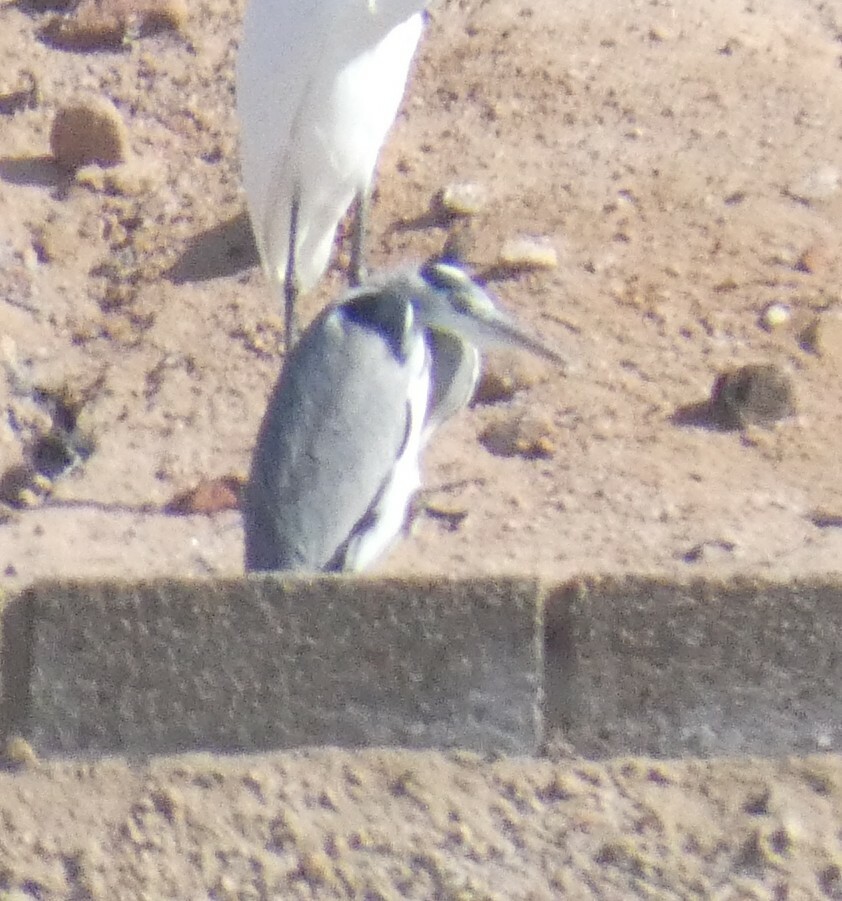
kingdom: Animalia
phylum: Chordata
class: Aves
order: Pelecaniformes
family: Ardeidae
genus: Ardea
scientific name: Ardea cinerea
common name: Grey heron
